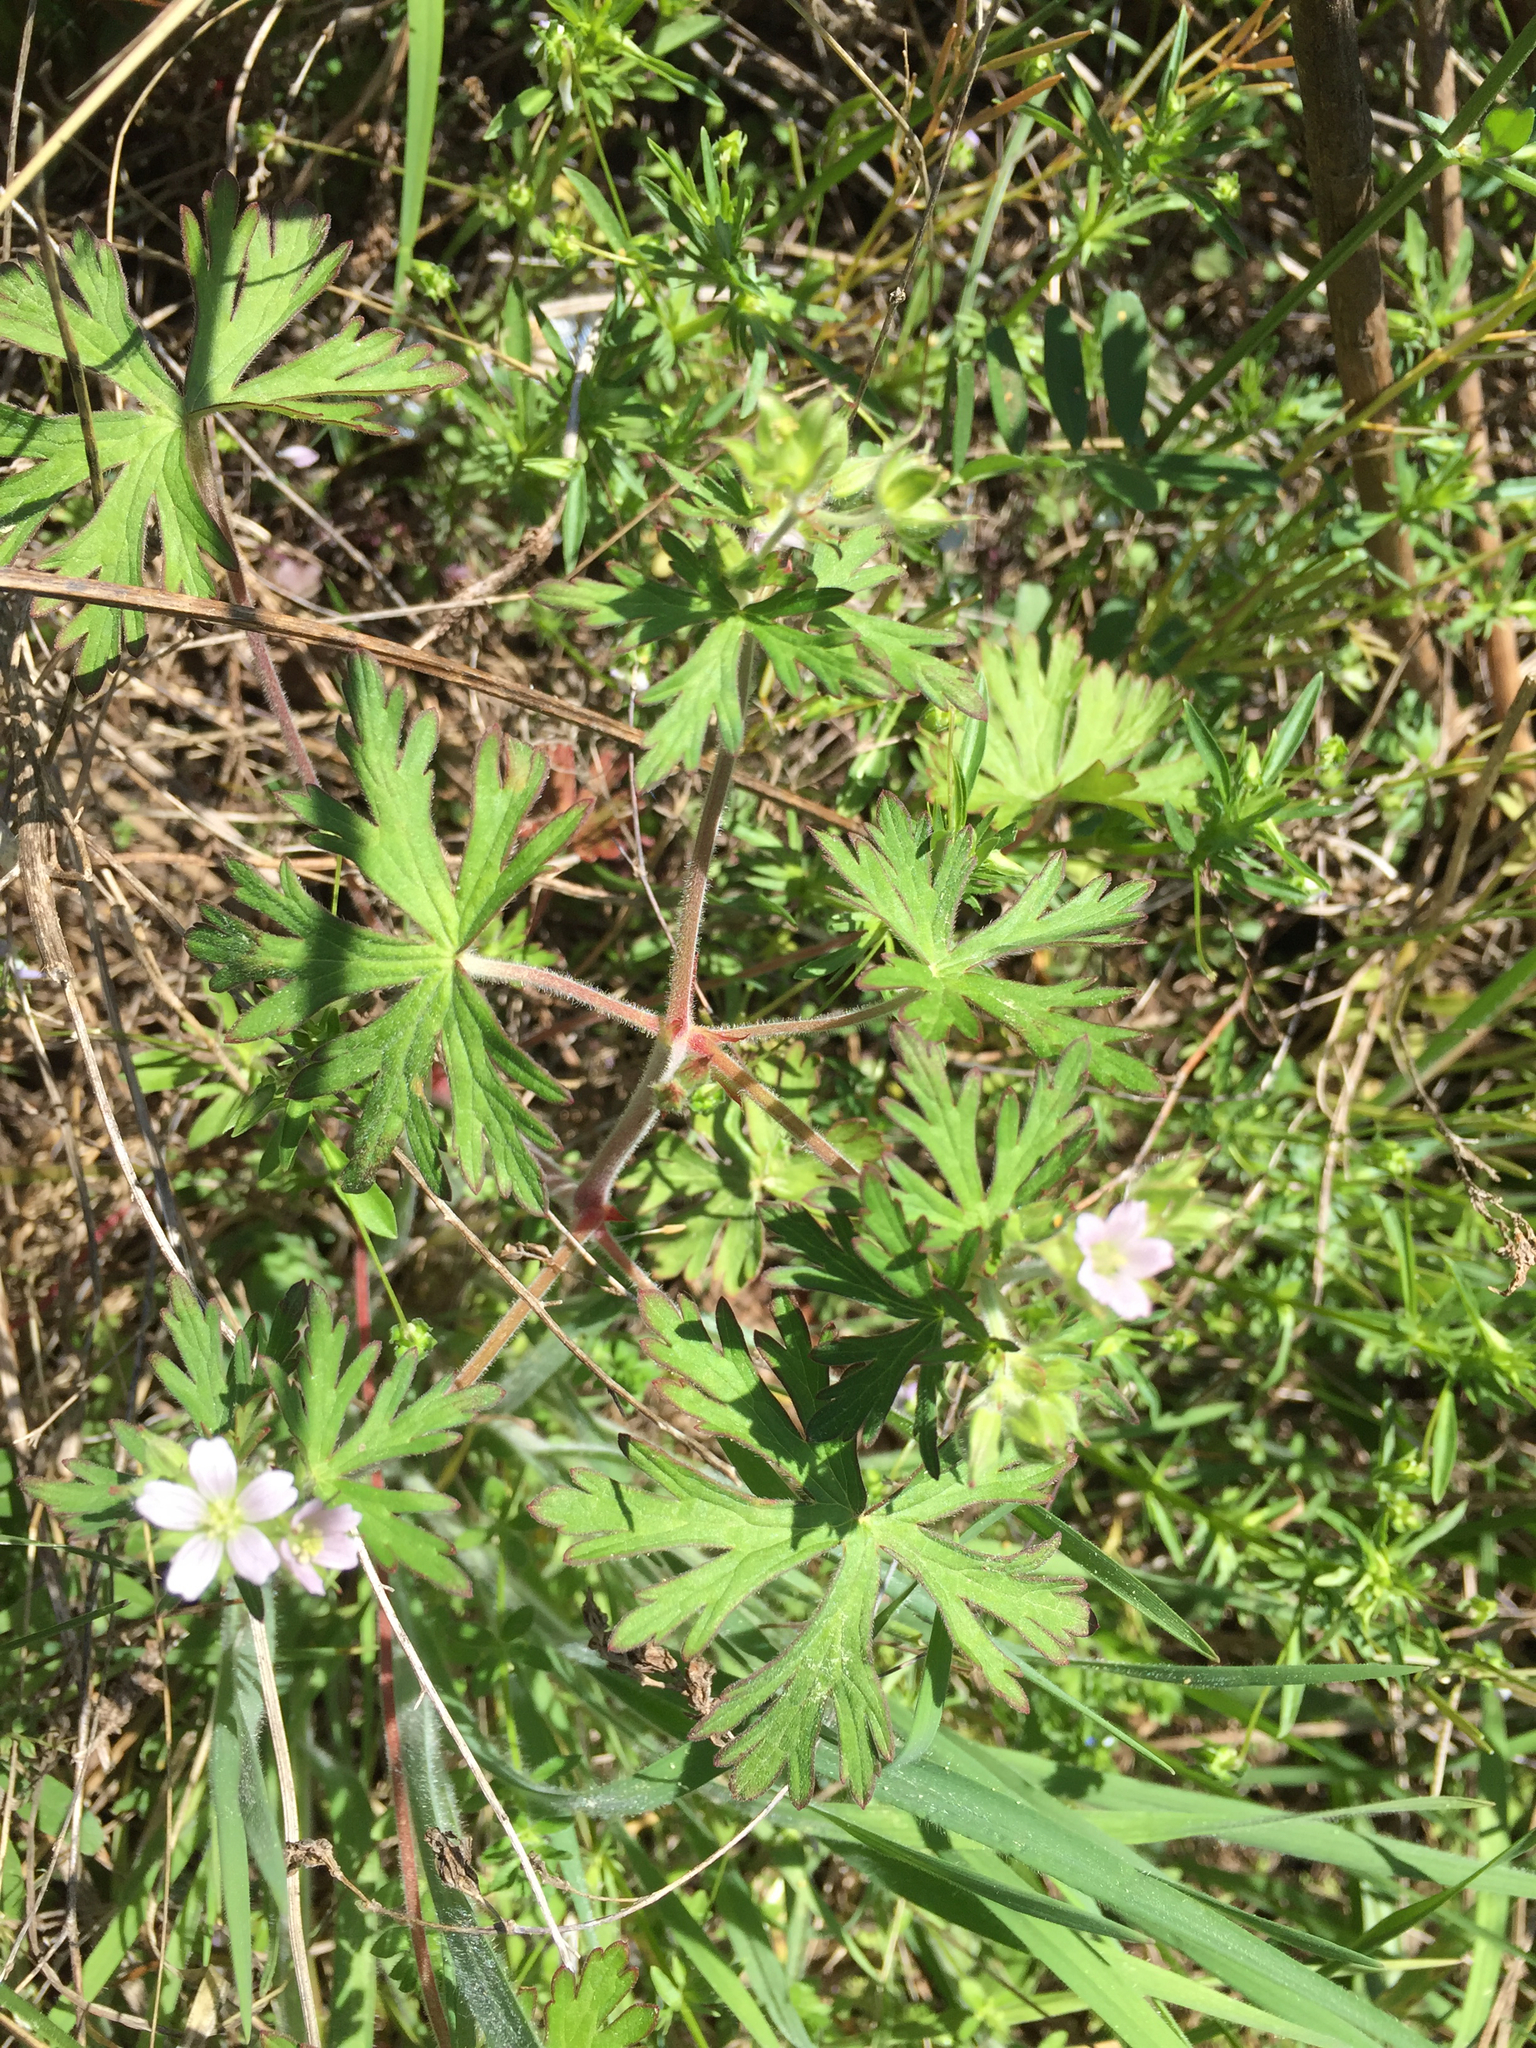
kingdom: Plantae
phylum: Tracheophyta
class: Magnoliopsida
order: Geraniales
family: Geraniaceae
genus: Geranium
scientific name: Geranium carolinianum
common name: Carolina crane's-bill
